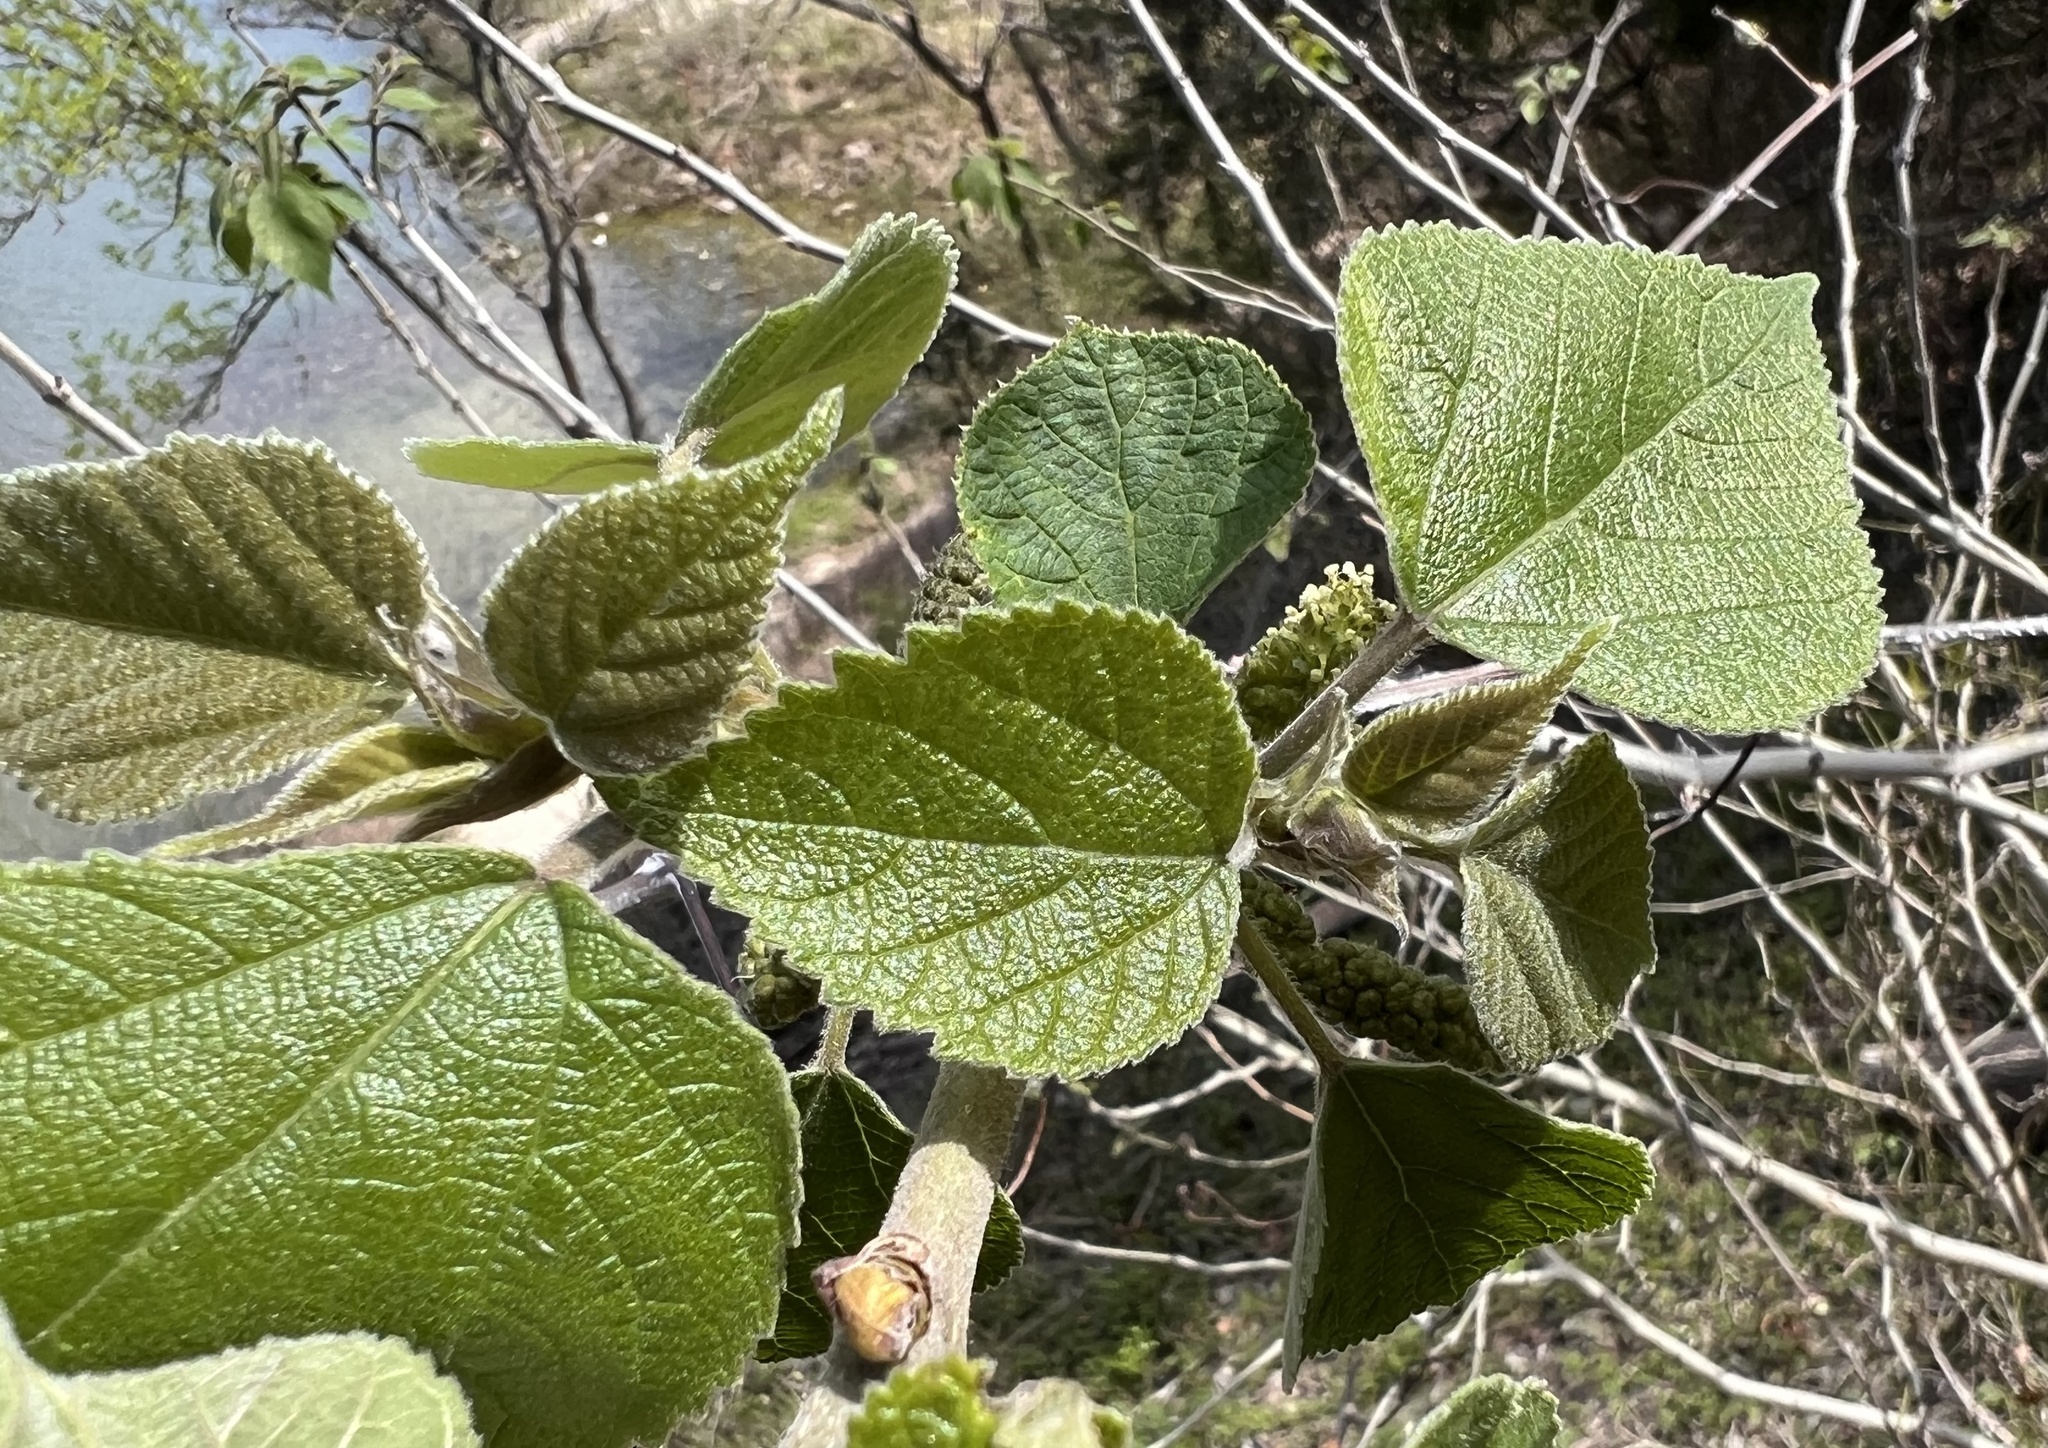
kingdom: Plantae
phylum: Tracheophyta
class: Magnoliopsida
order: Rosales
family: Moraceae
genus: Broussonetia
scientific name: Broussonetia papyrifera
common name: Paper mulberry
